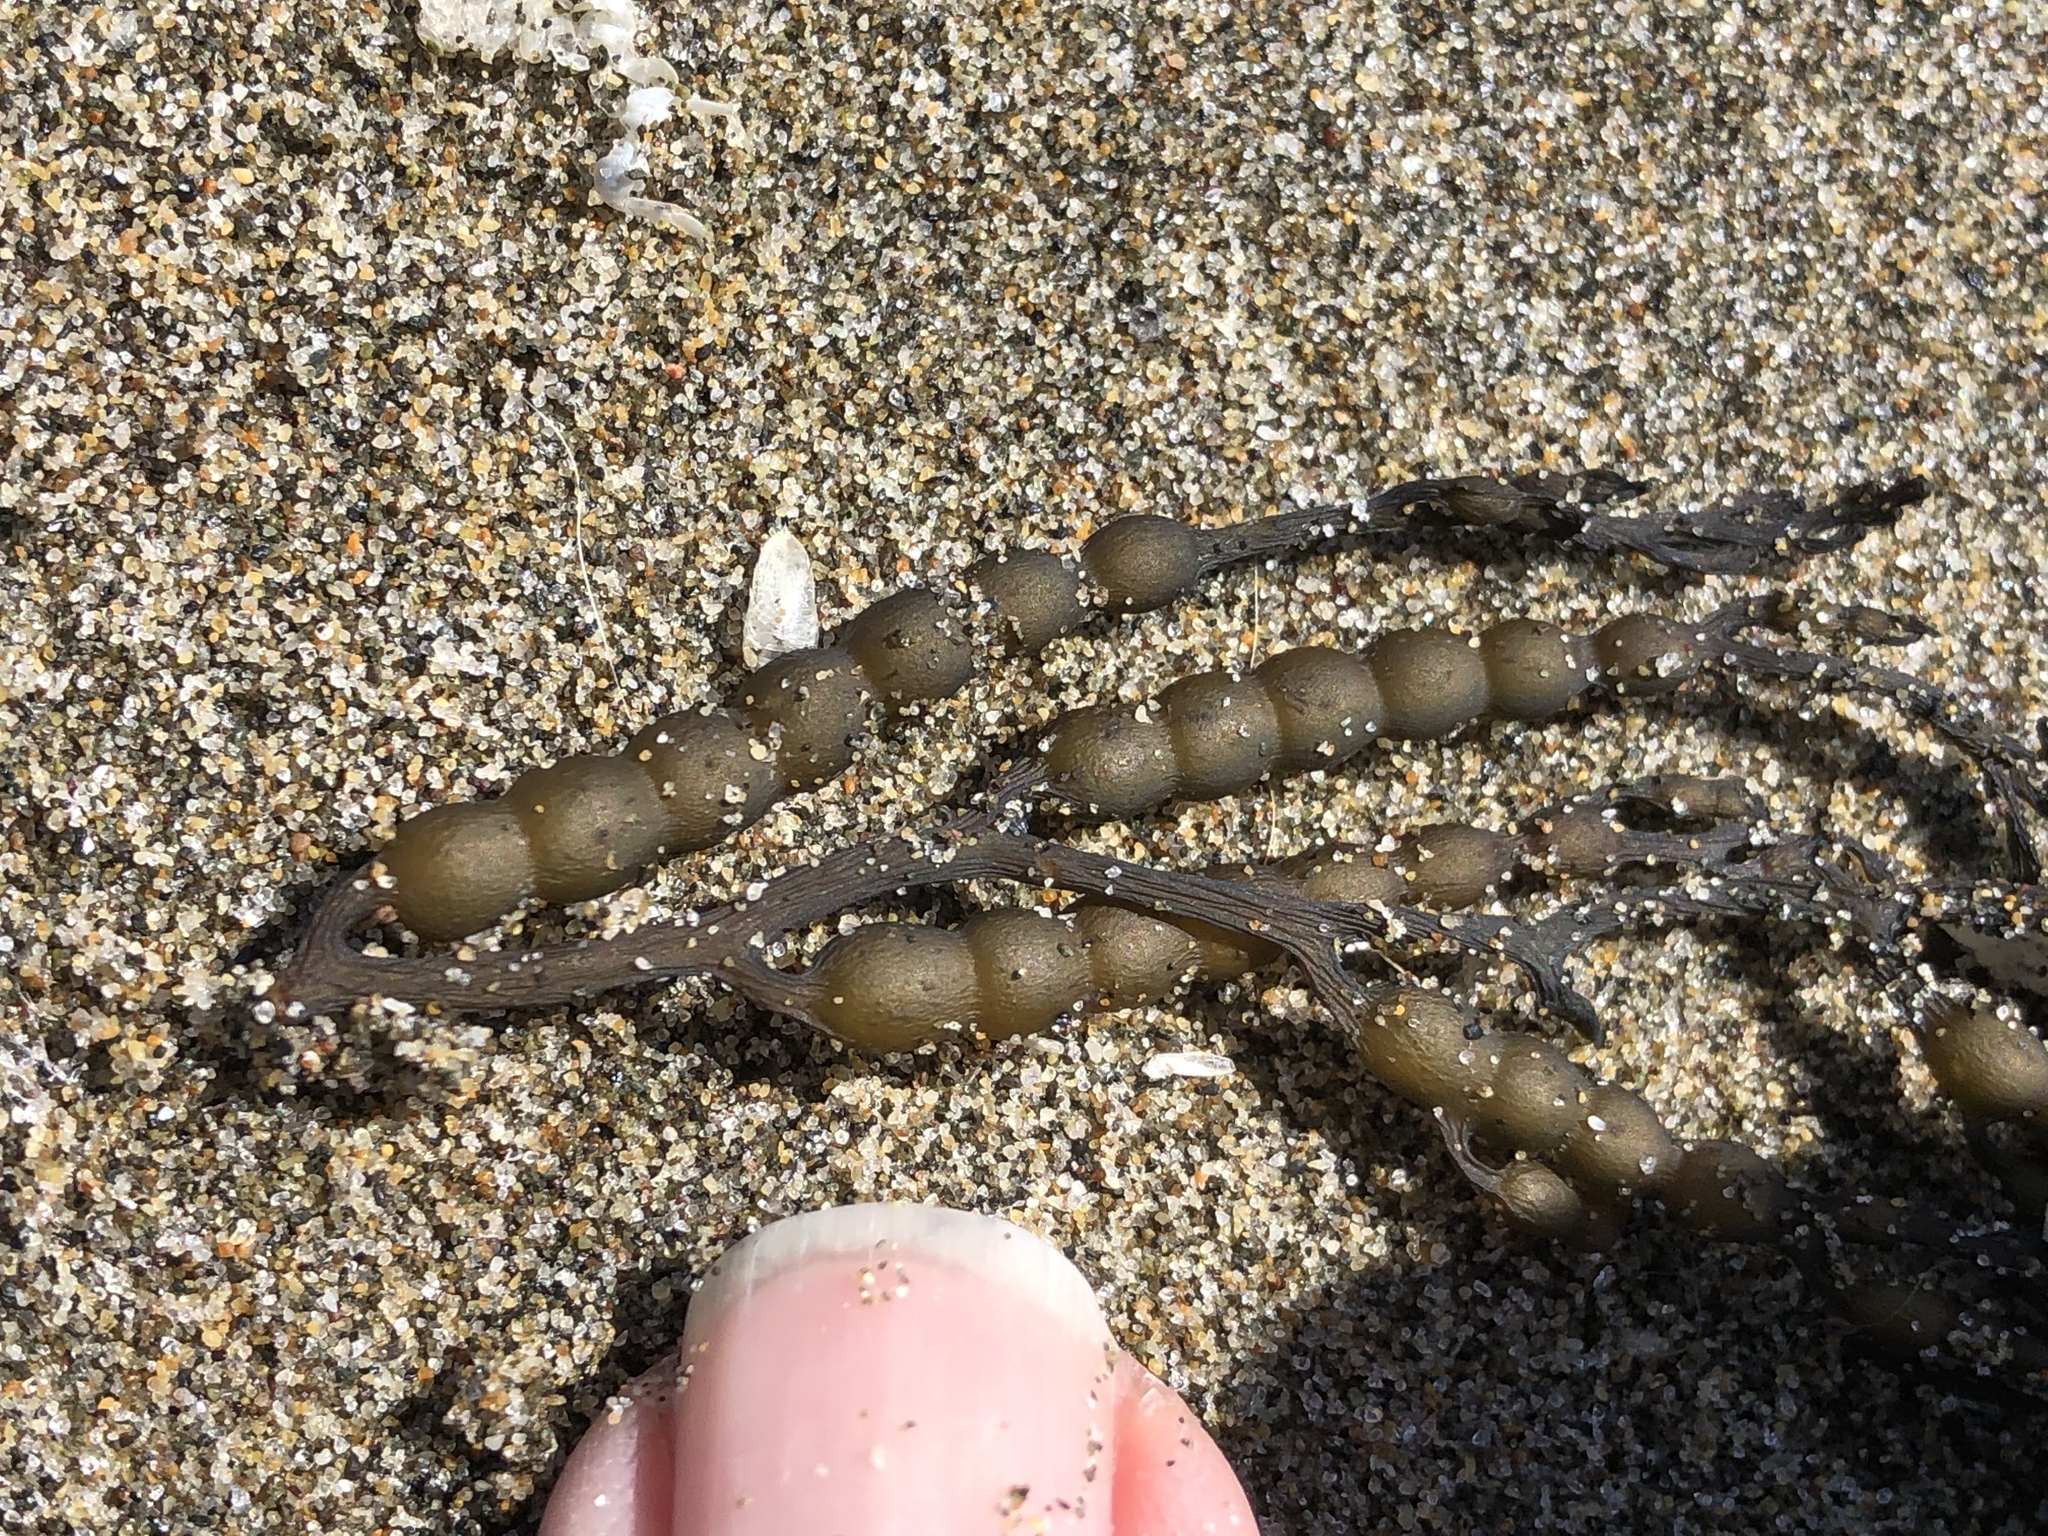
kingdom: Chromista
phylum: Ochrophyta
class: Phaeophyceae
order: Fucales
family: Sargassaceae
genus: Stephanocystis
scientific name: Stephanocystis
